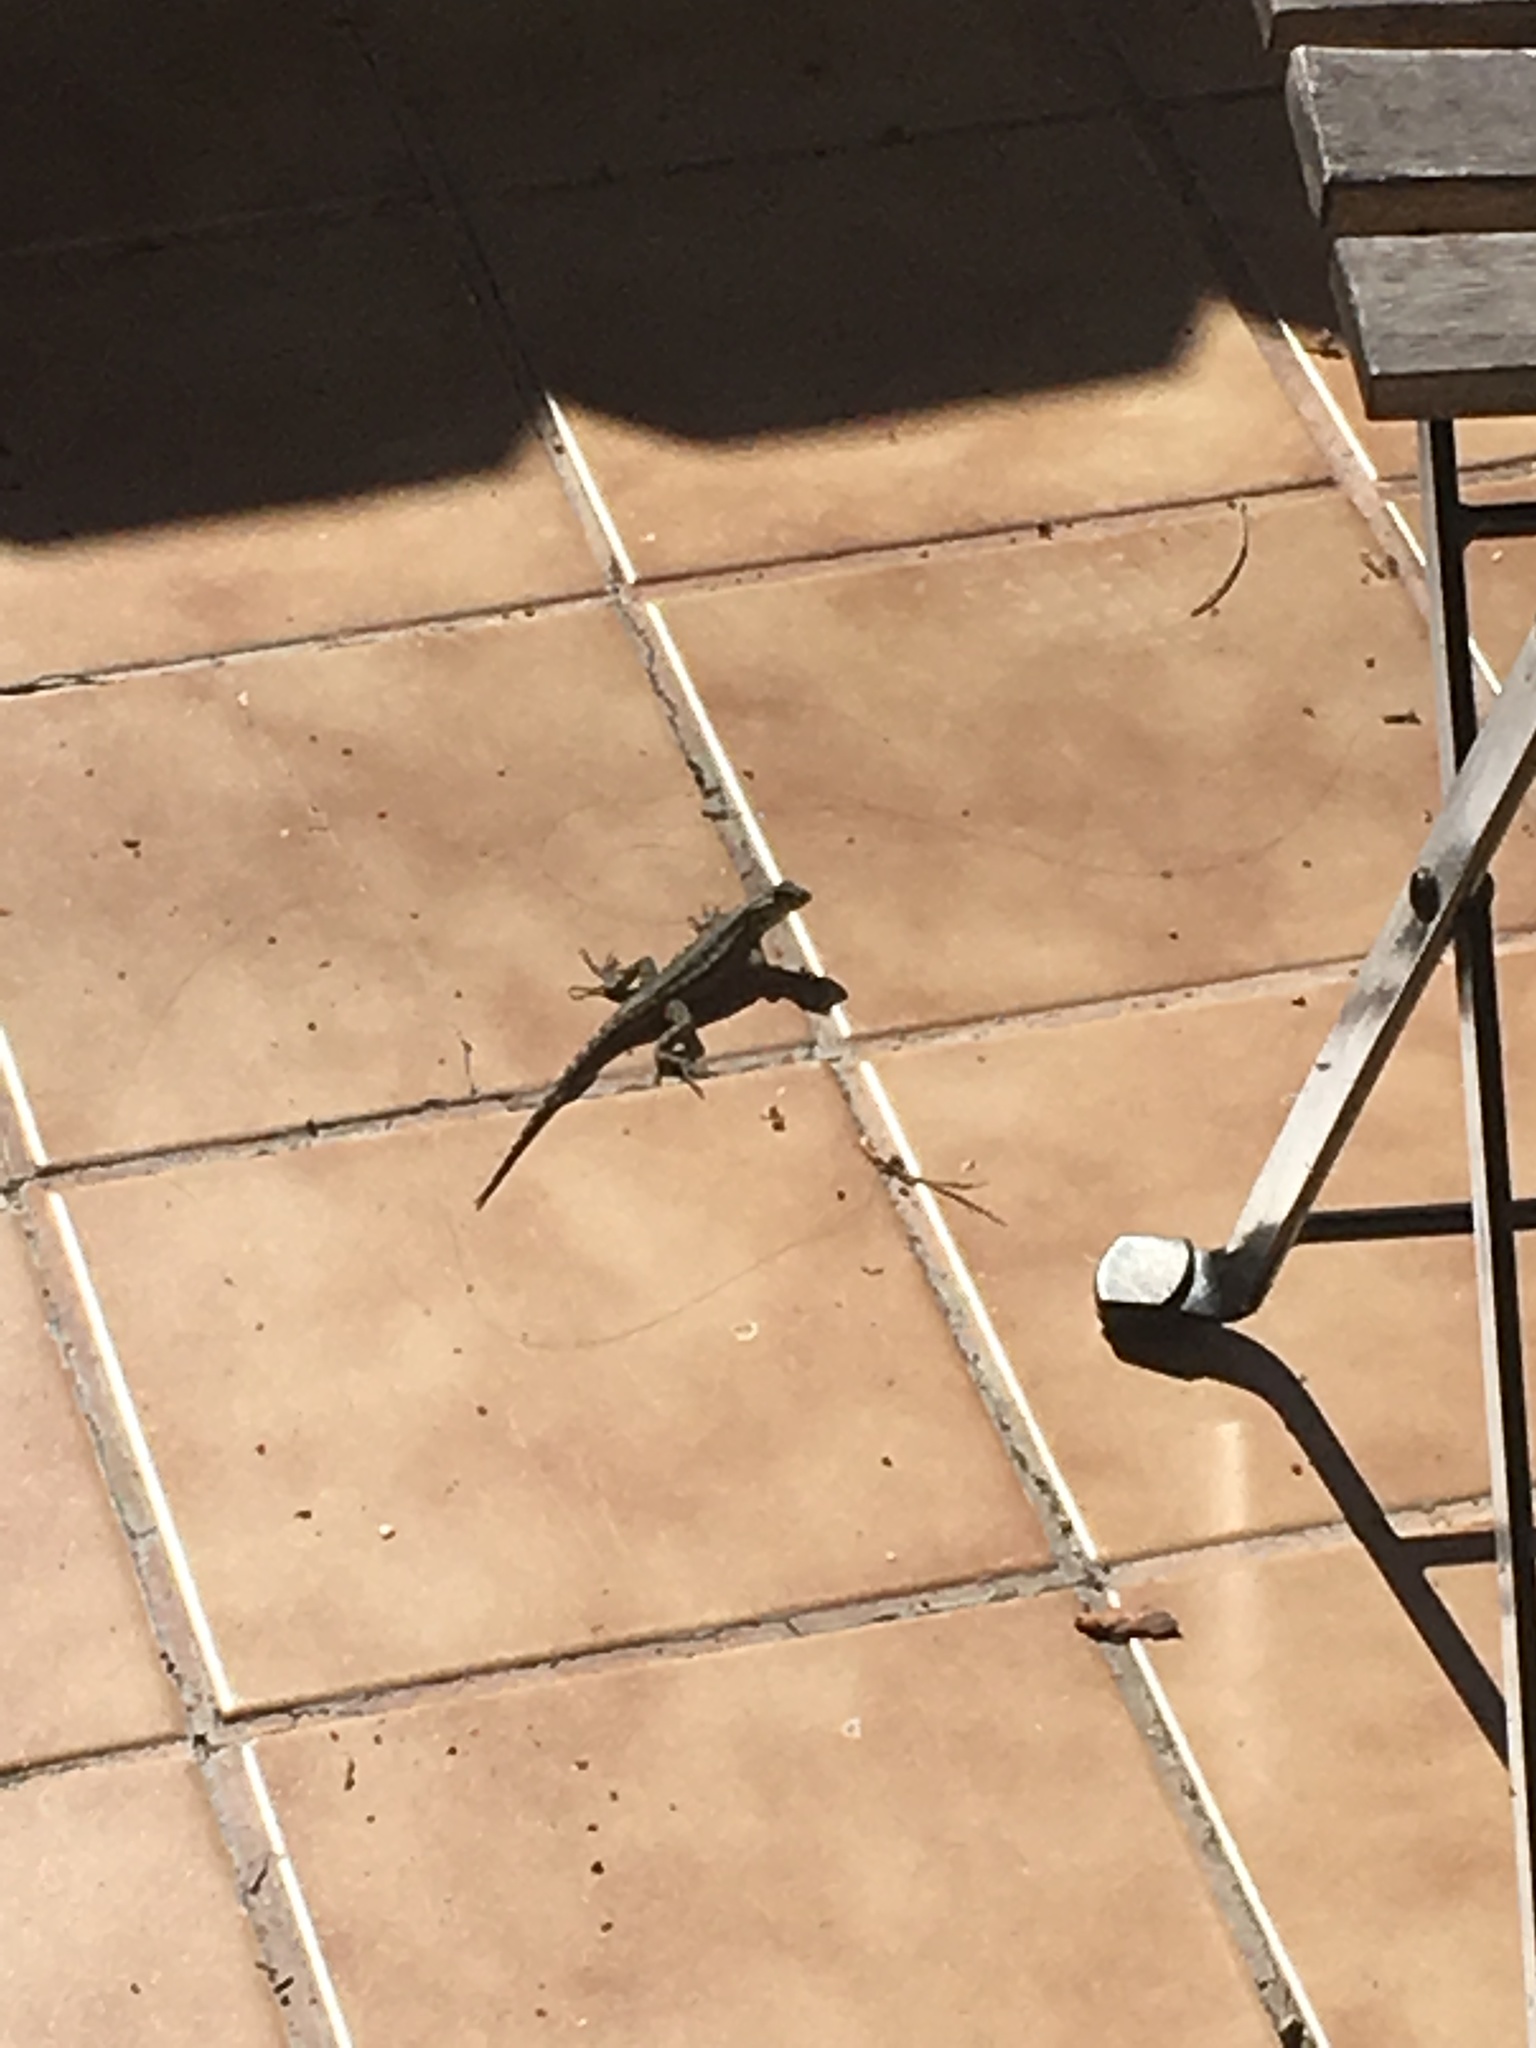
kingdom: Animalia
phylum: Chordata
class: Squamata
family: Phrynosomatidae
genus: Sceloporus
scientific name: Sceloporus occidentalis
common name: Western fence lizard
